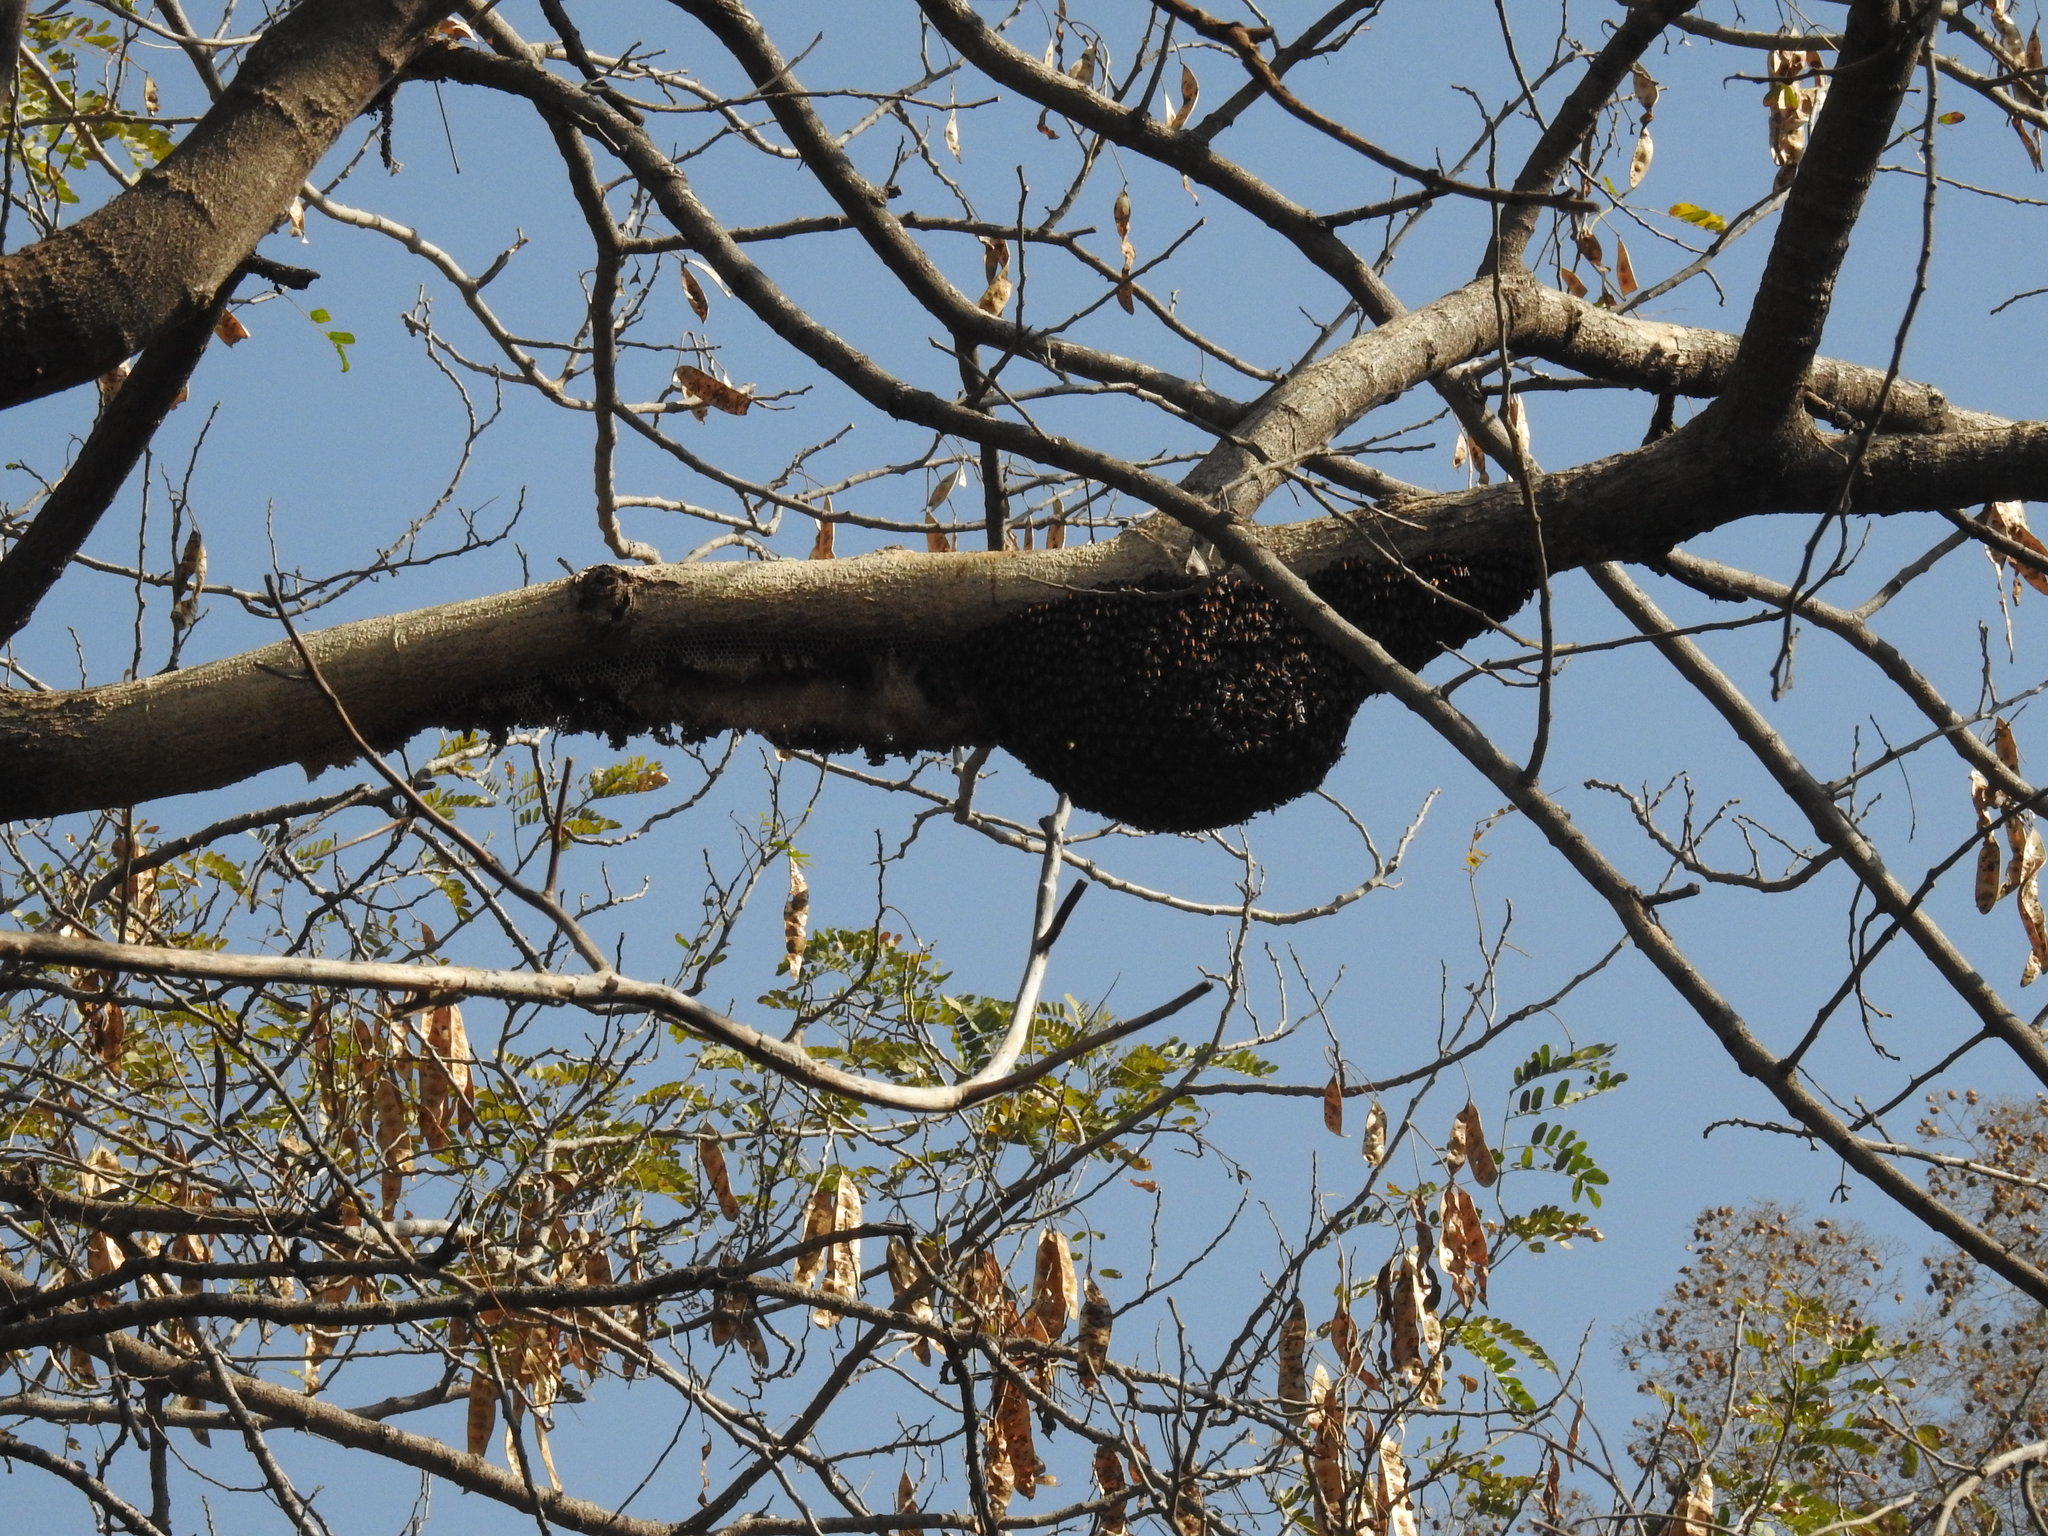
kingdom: Animalia
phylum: Arthropoda
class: Insecta
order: Hymenoptera
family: Apidae
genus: Apis
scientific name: Apis dorsata
